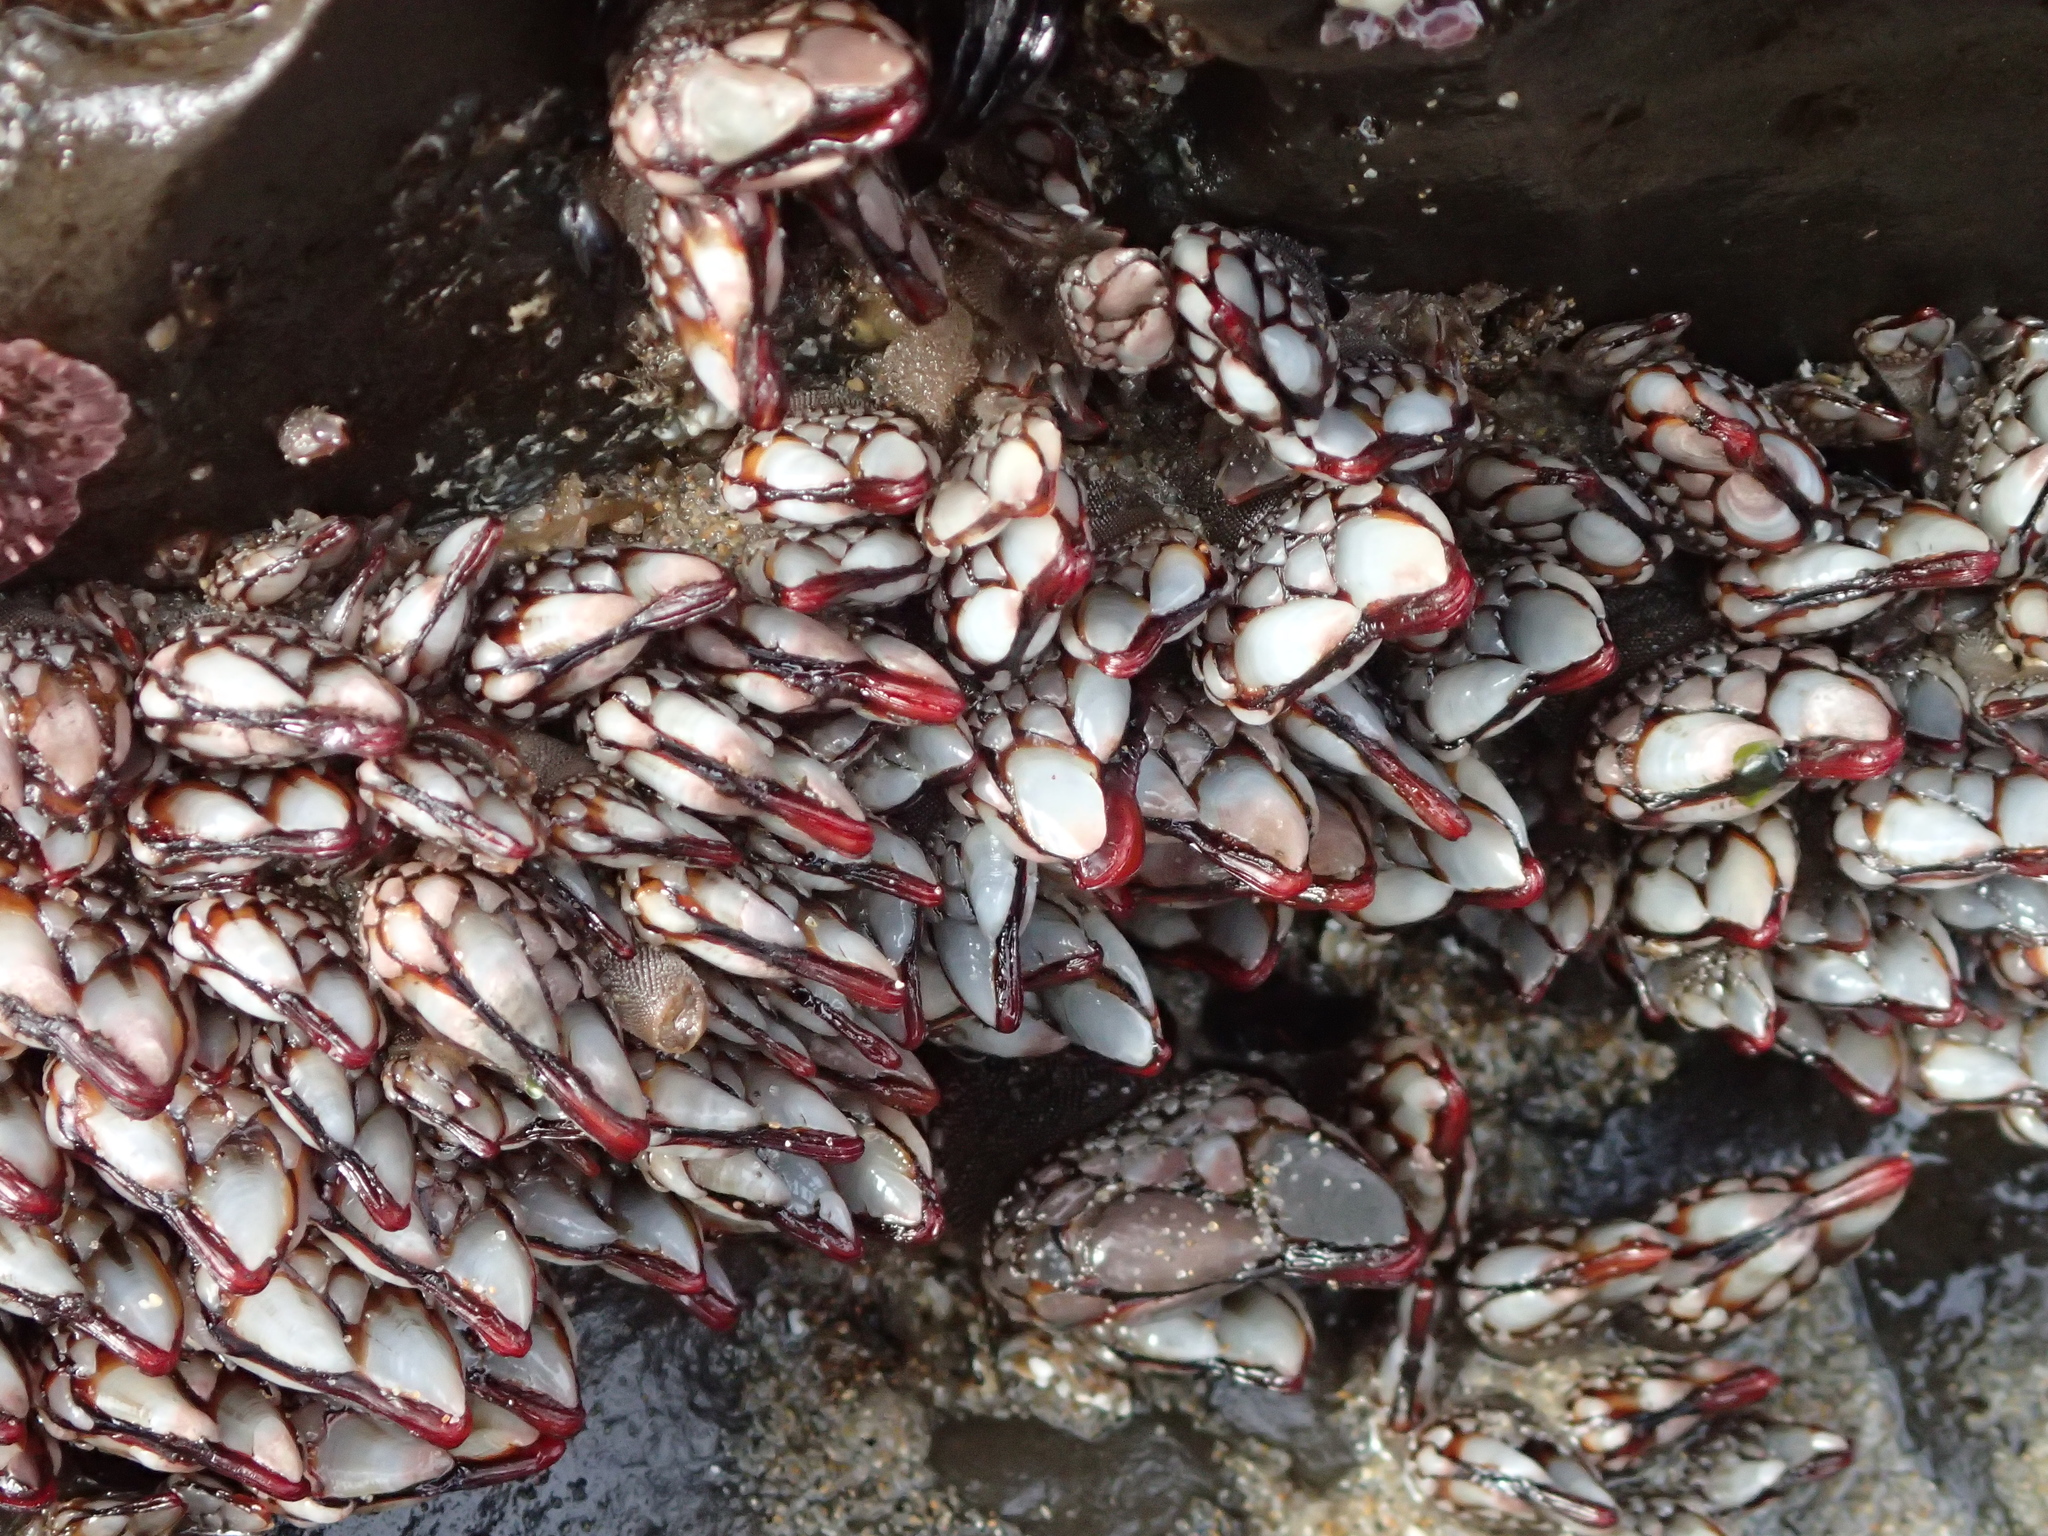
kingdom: Animalia
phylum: Arthropoda
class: Maxillopoda
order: Pedunculata
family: Pollicipedidae
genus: Pollicipes
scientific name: Pollicipes polymerus
